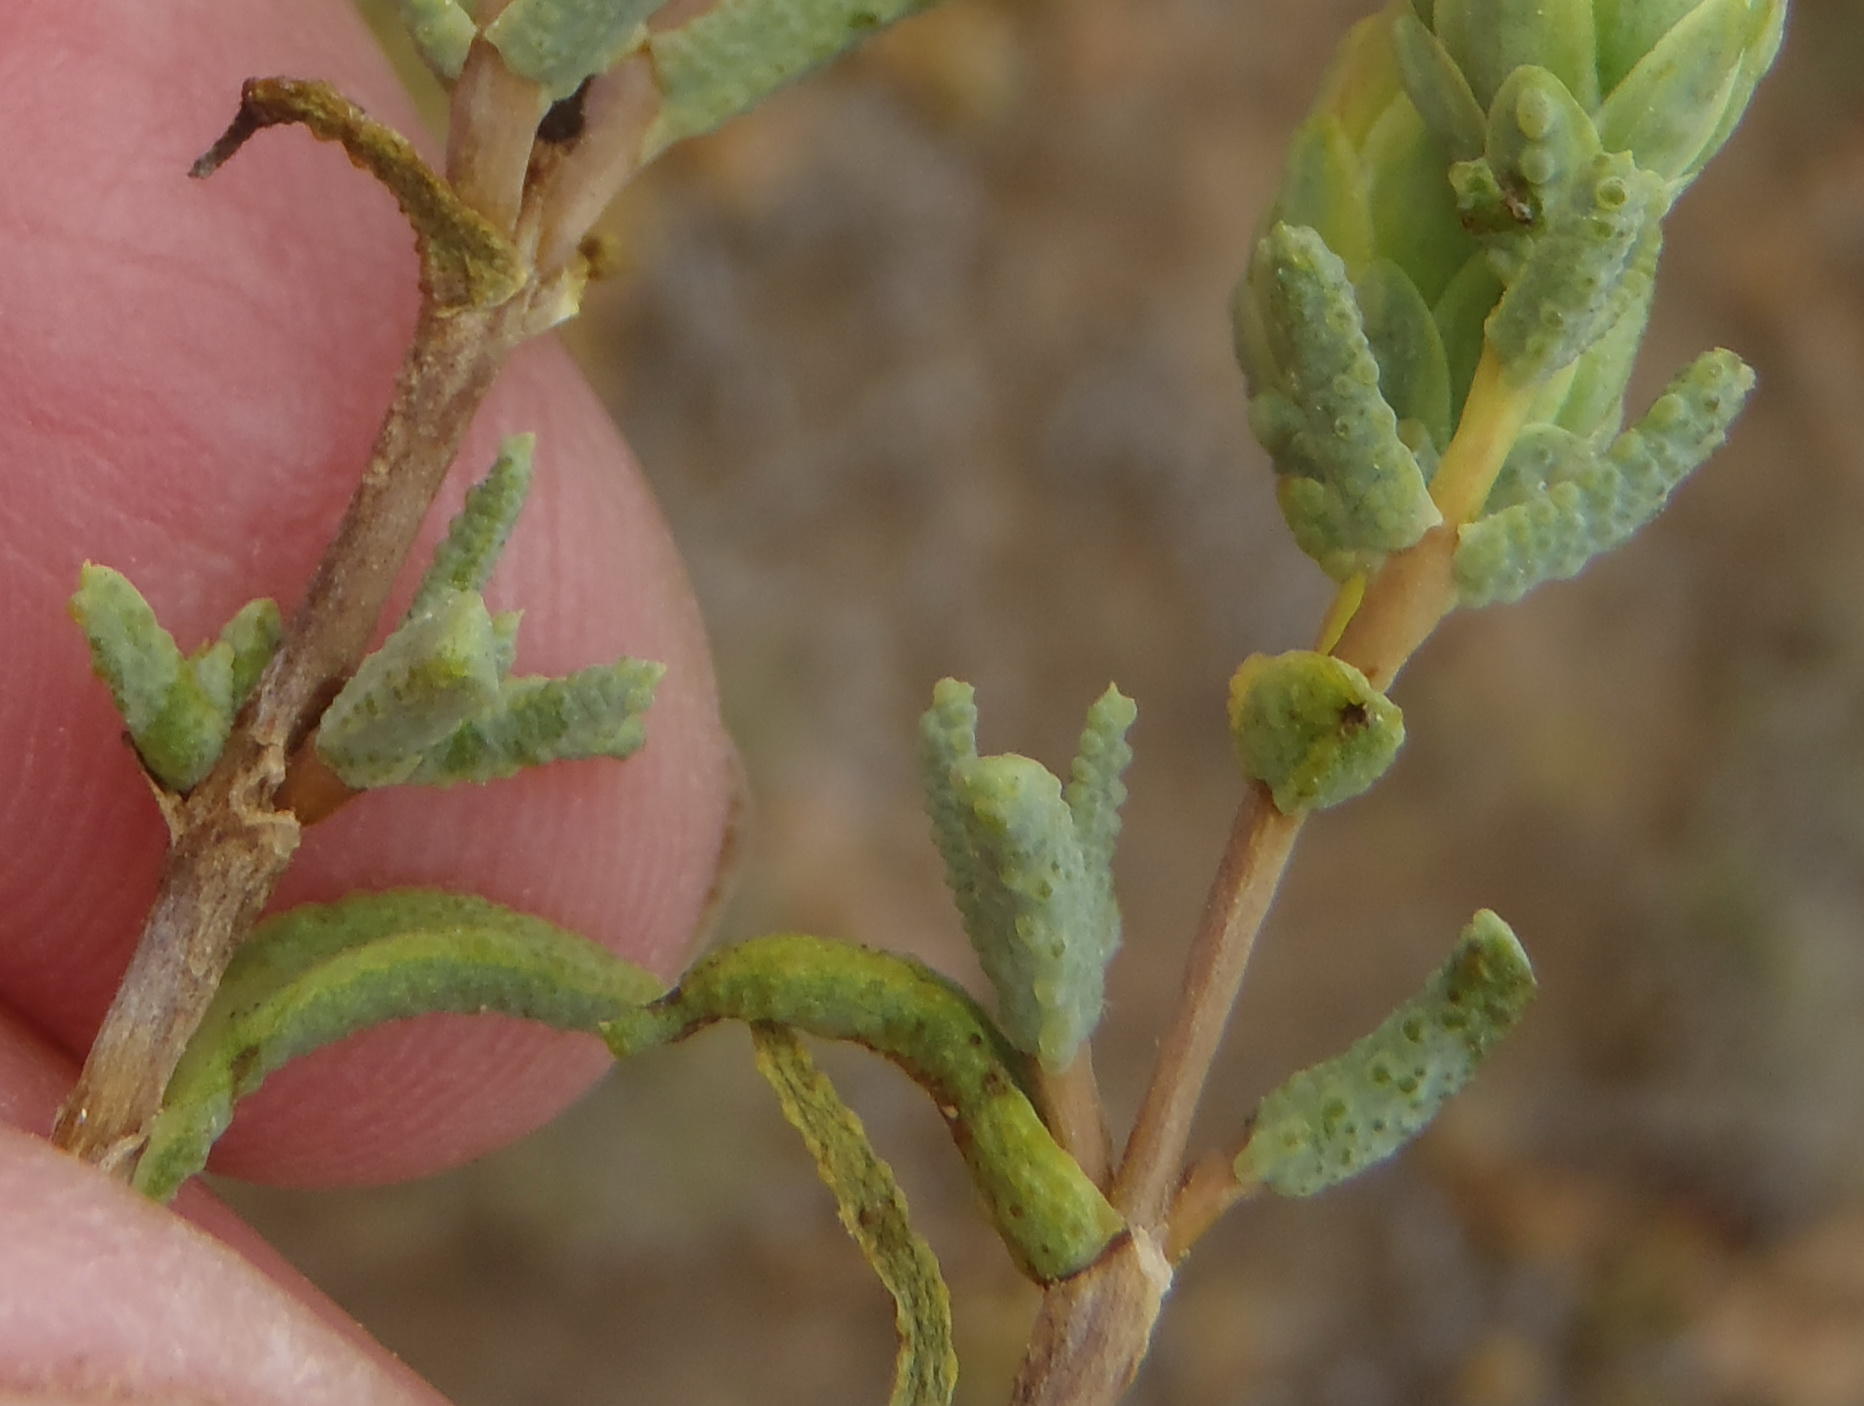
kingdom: Plantae
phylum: Tracheophyta
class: Magnoliopsida
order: Asterales
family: Asteraceae
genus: Pteronia
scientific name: Pteronia succulenta
